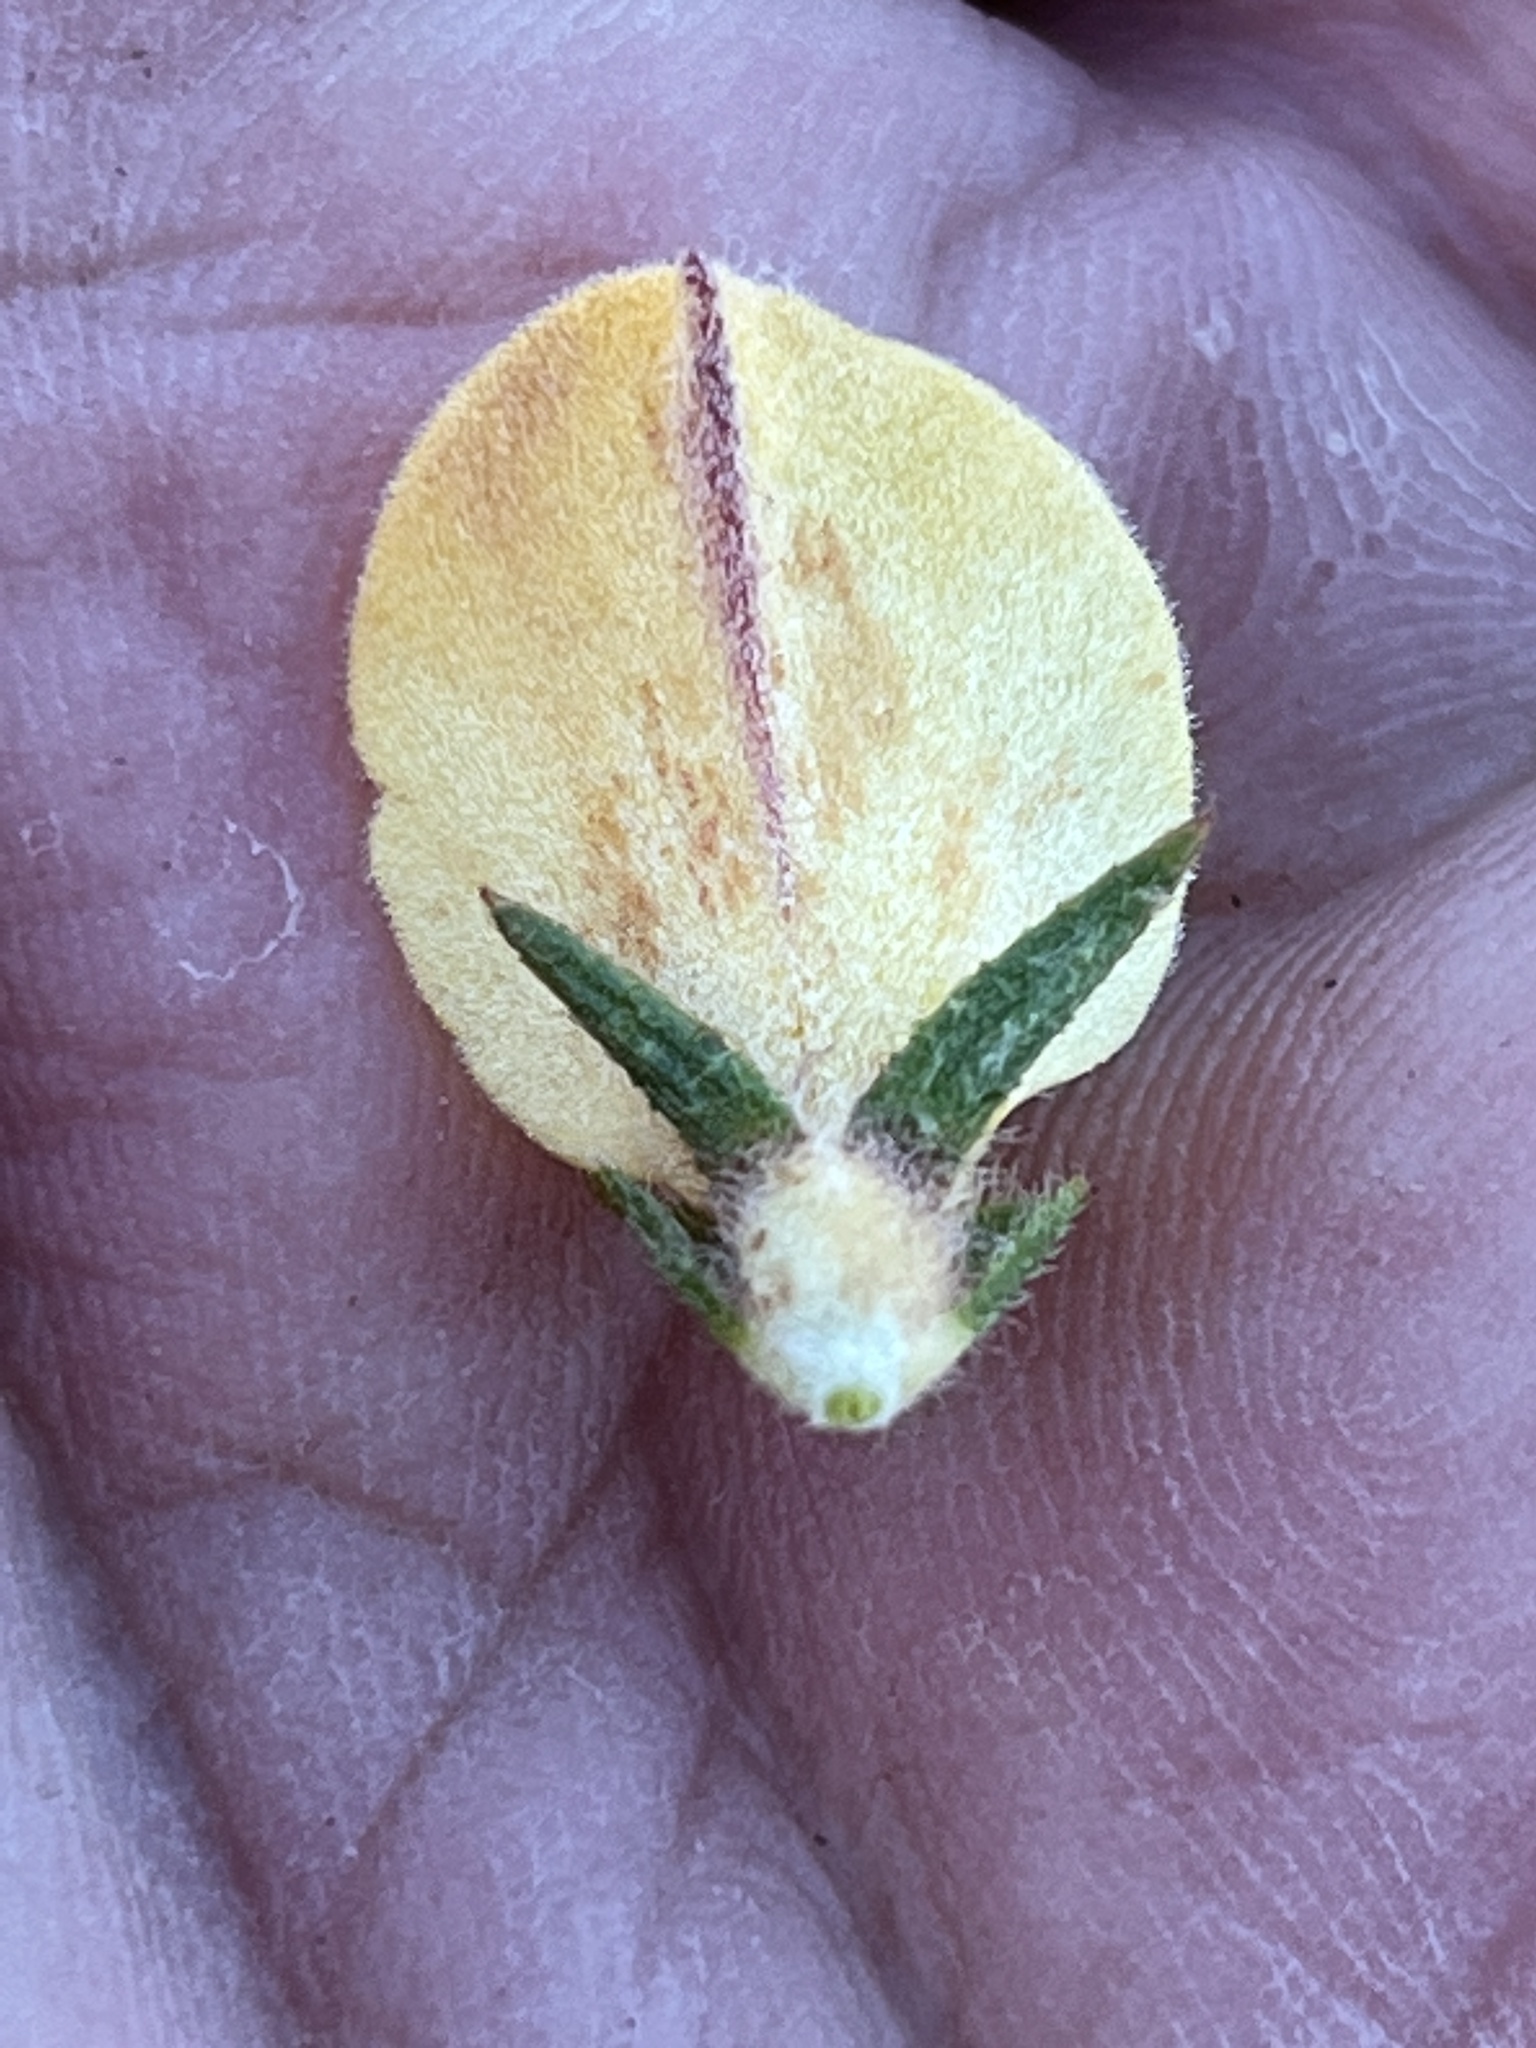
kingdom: Plantae
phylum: Tracheophyta
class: Magnoliopsida
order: Fabales
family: Fabaceae
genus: Aspalathus
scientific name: Aspalathus cliffortioides
